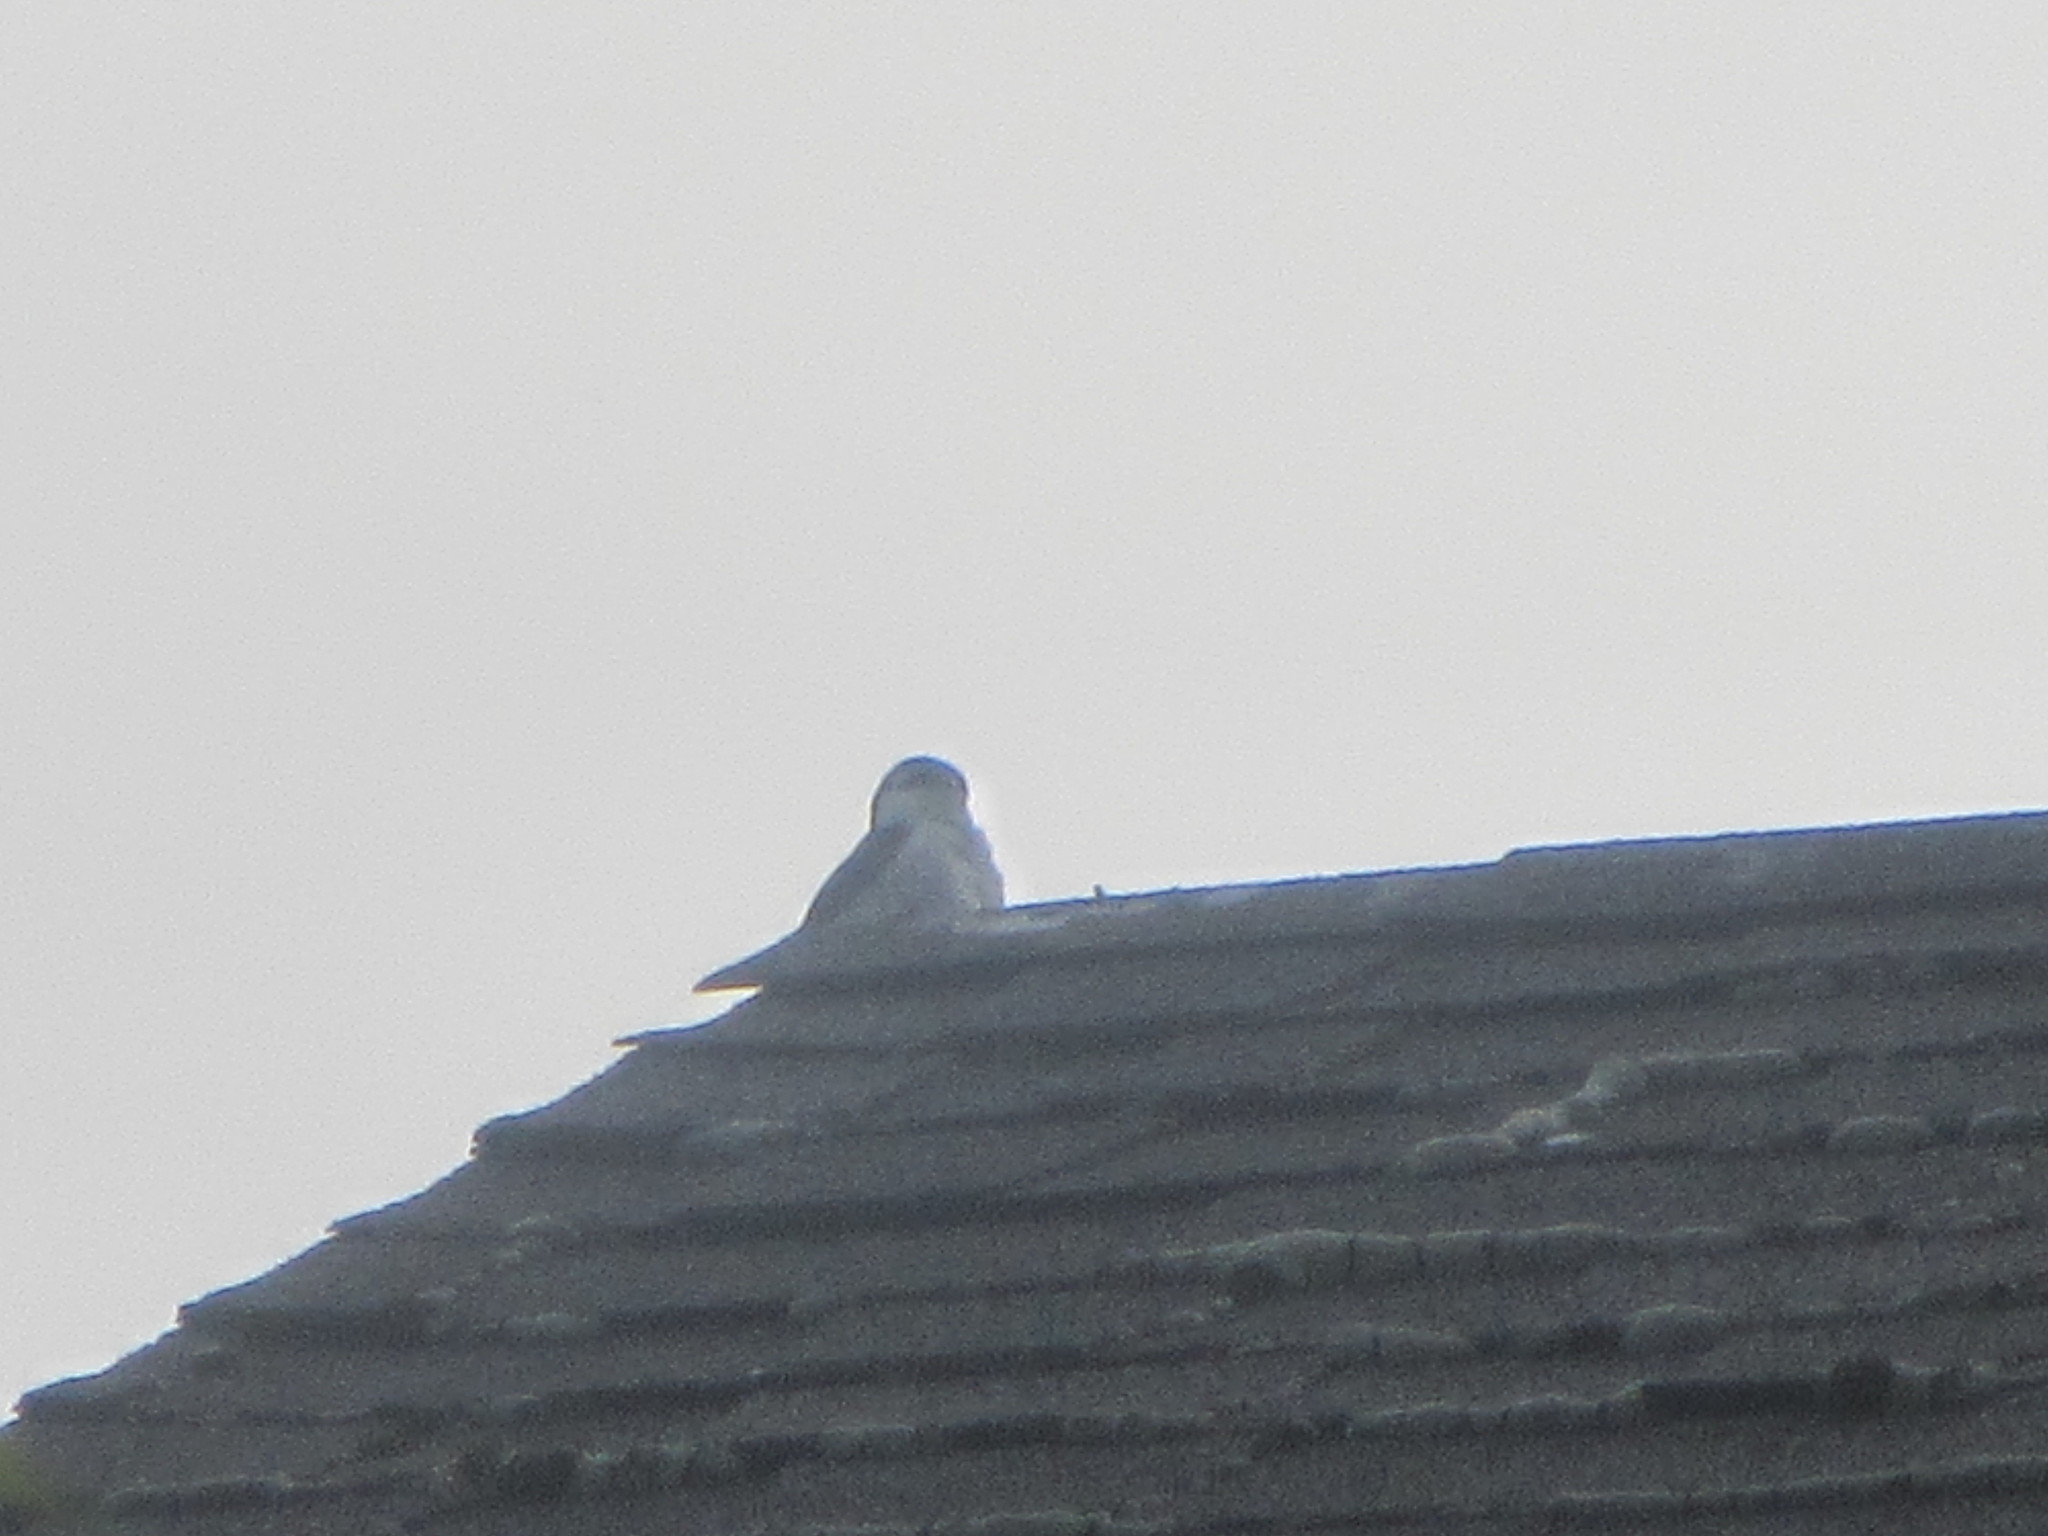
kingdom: Animalia
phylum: Chordata
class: Aves
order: Passeriformes
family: Hirundinidae
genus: Tachycineta
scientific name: Tachycineta thalassina
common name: Violet-green swallow
